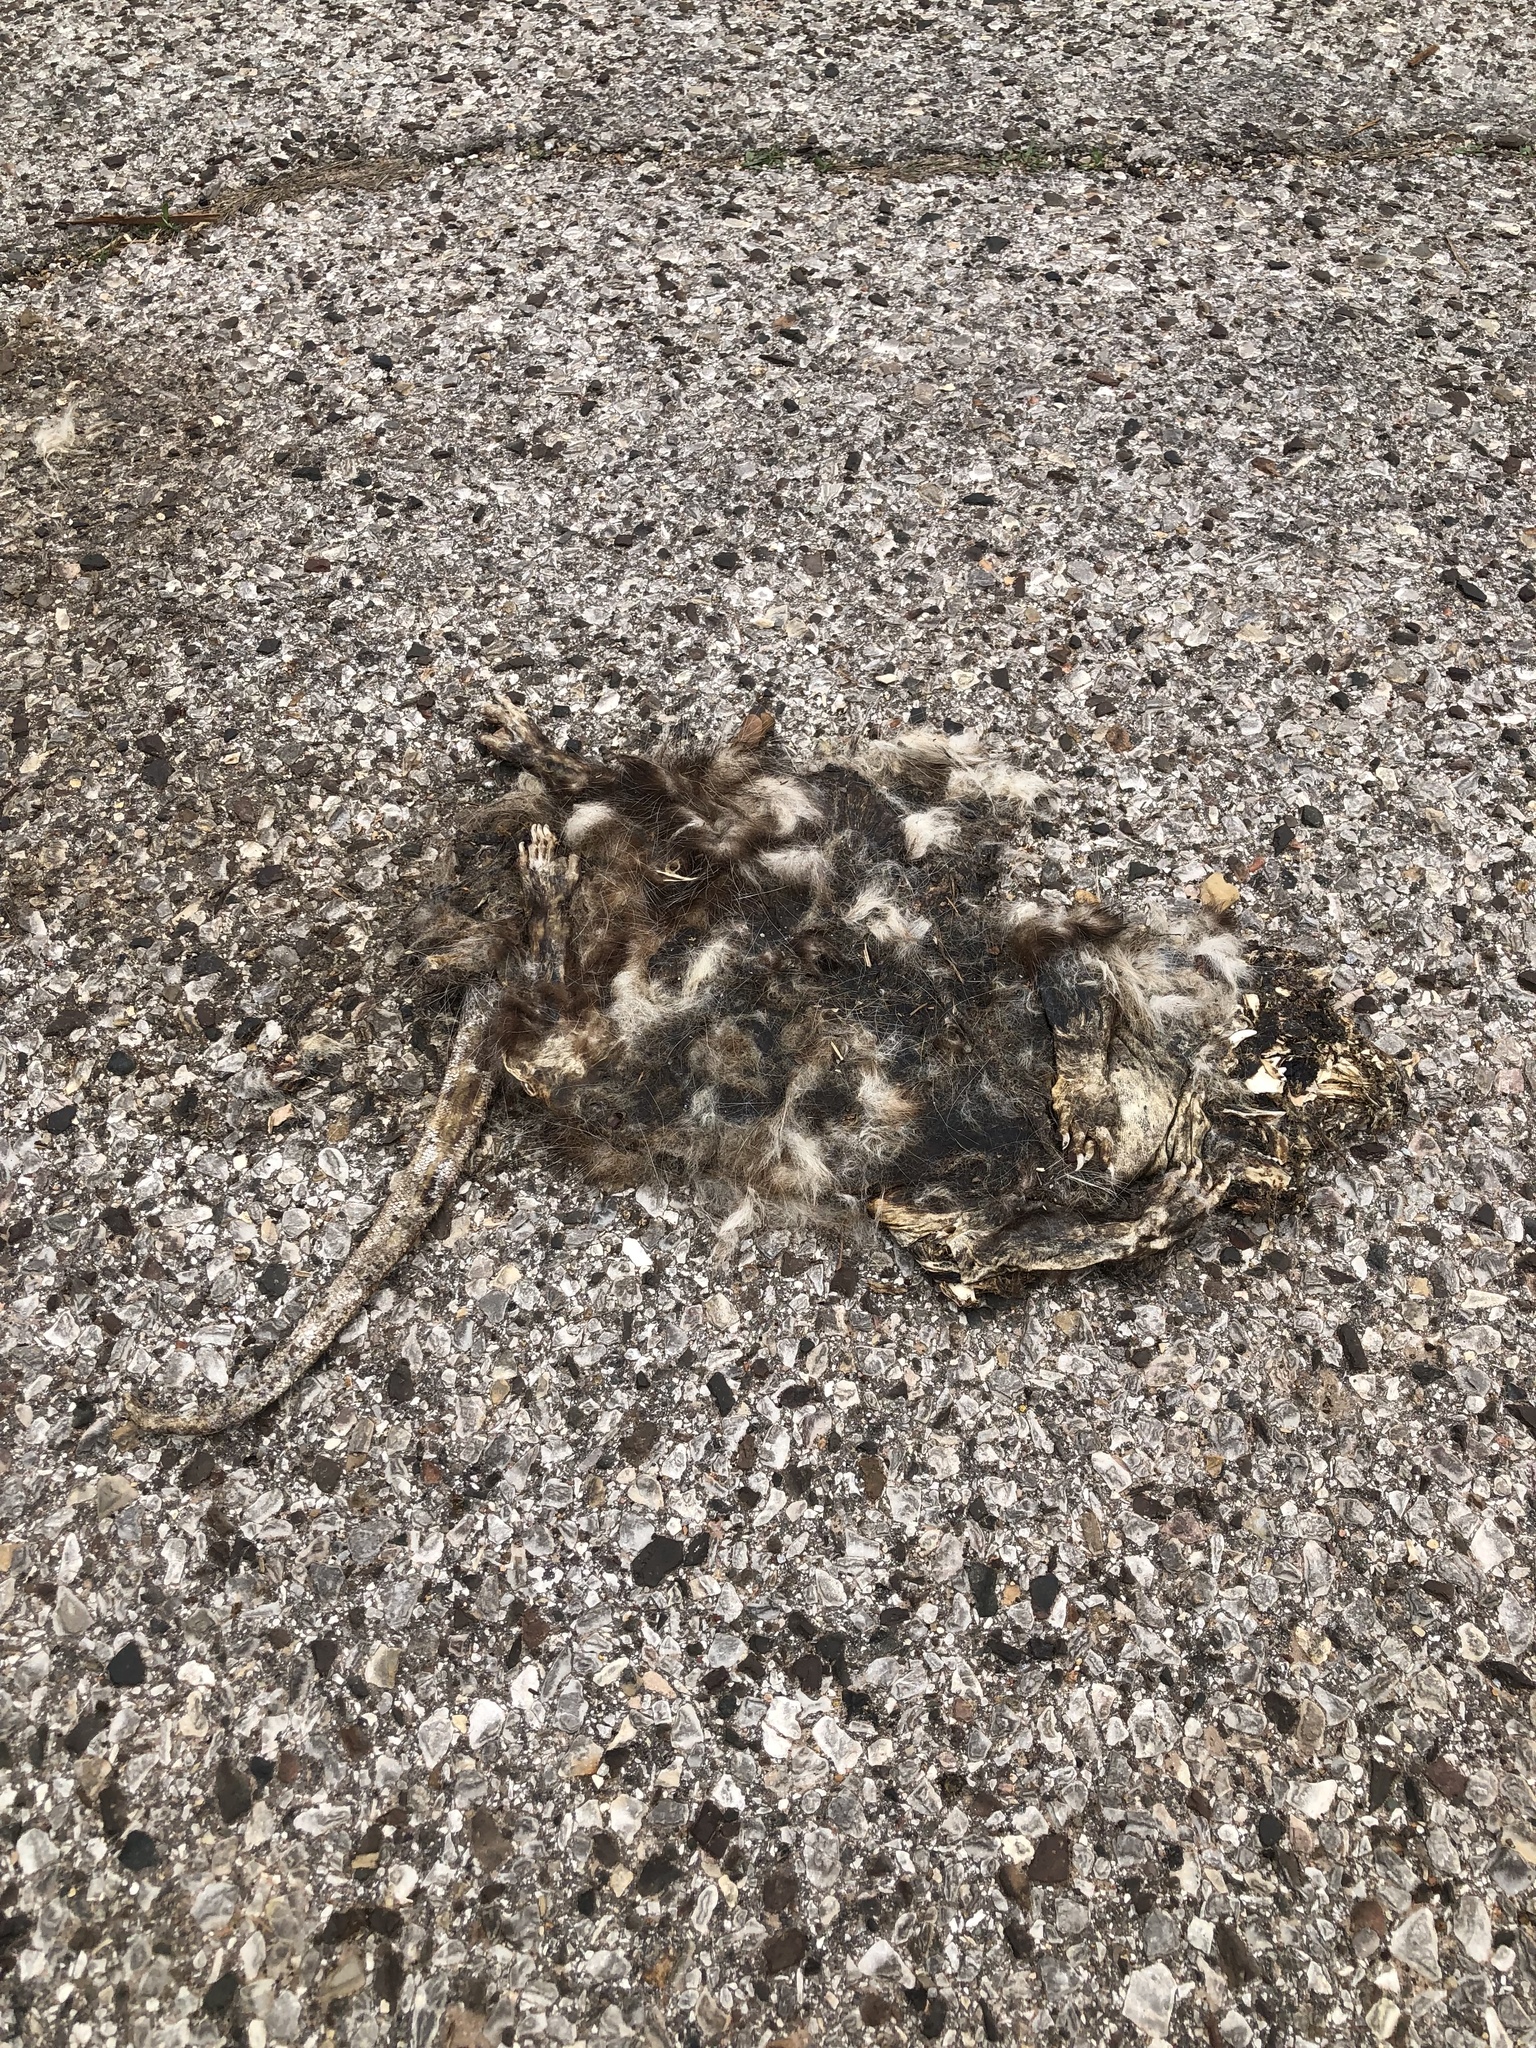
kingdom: Animalia
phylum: Chordata
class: Mammalia
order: Didelphimorphia
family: Didelphidae
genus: Didelphis
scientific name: Didelphis virginiana
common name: Virginia opossum
